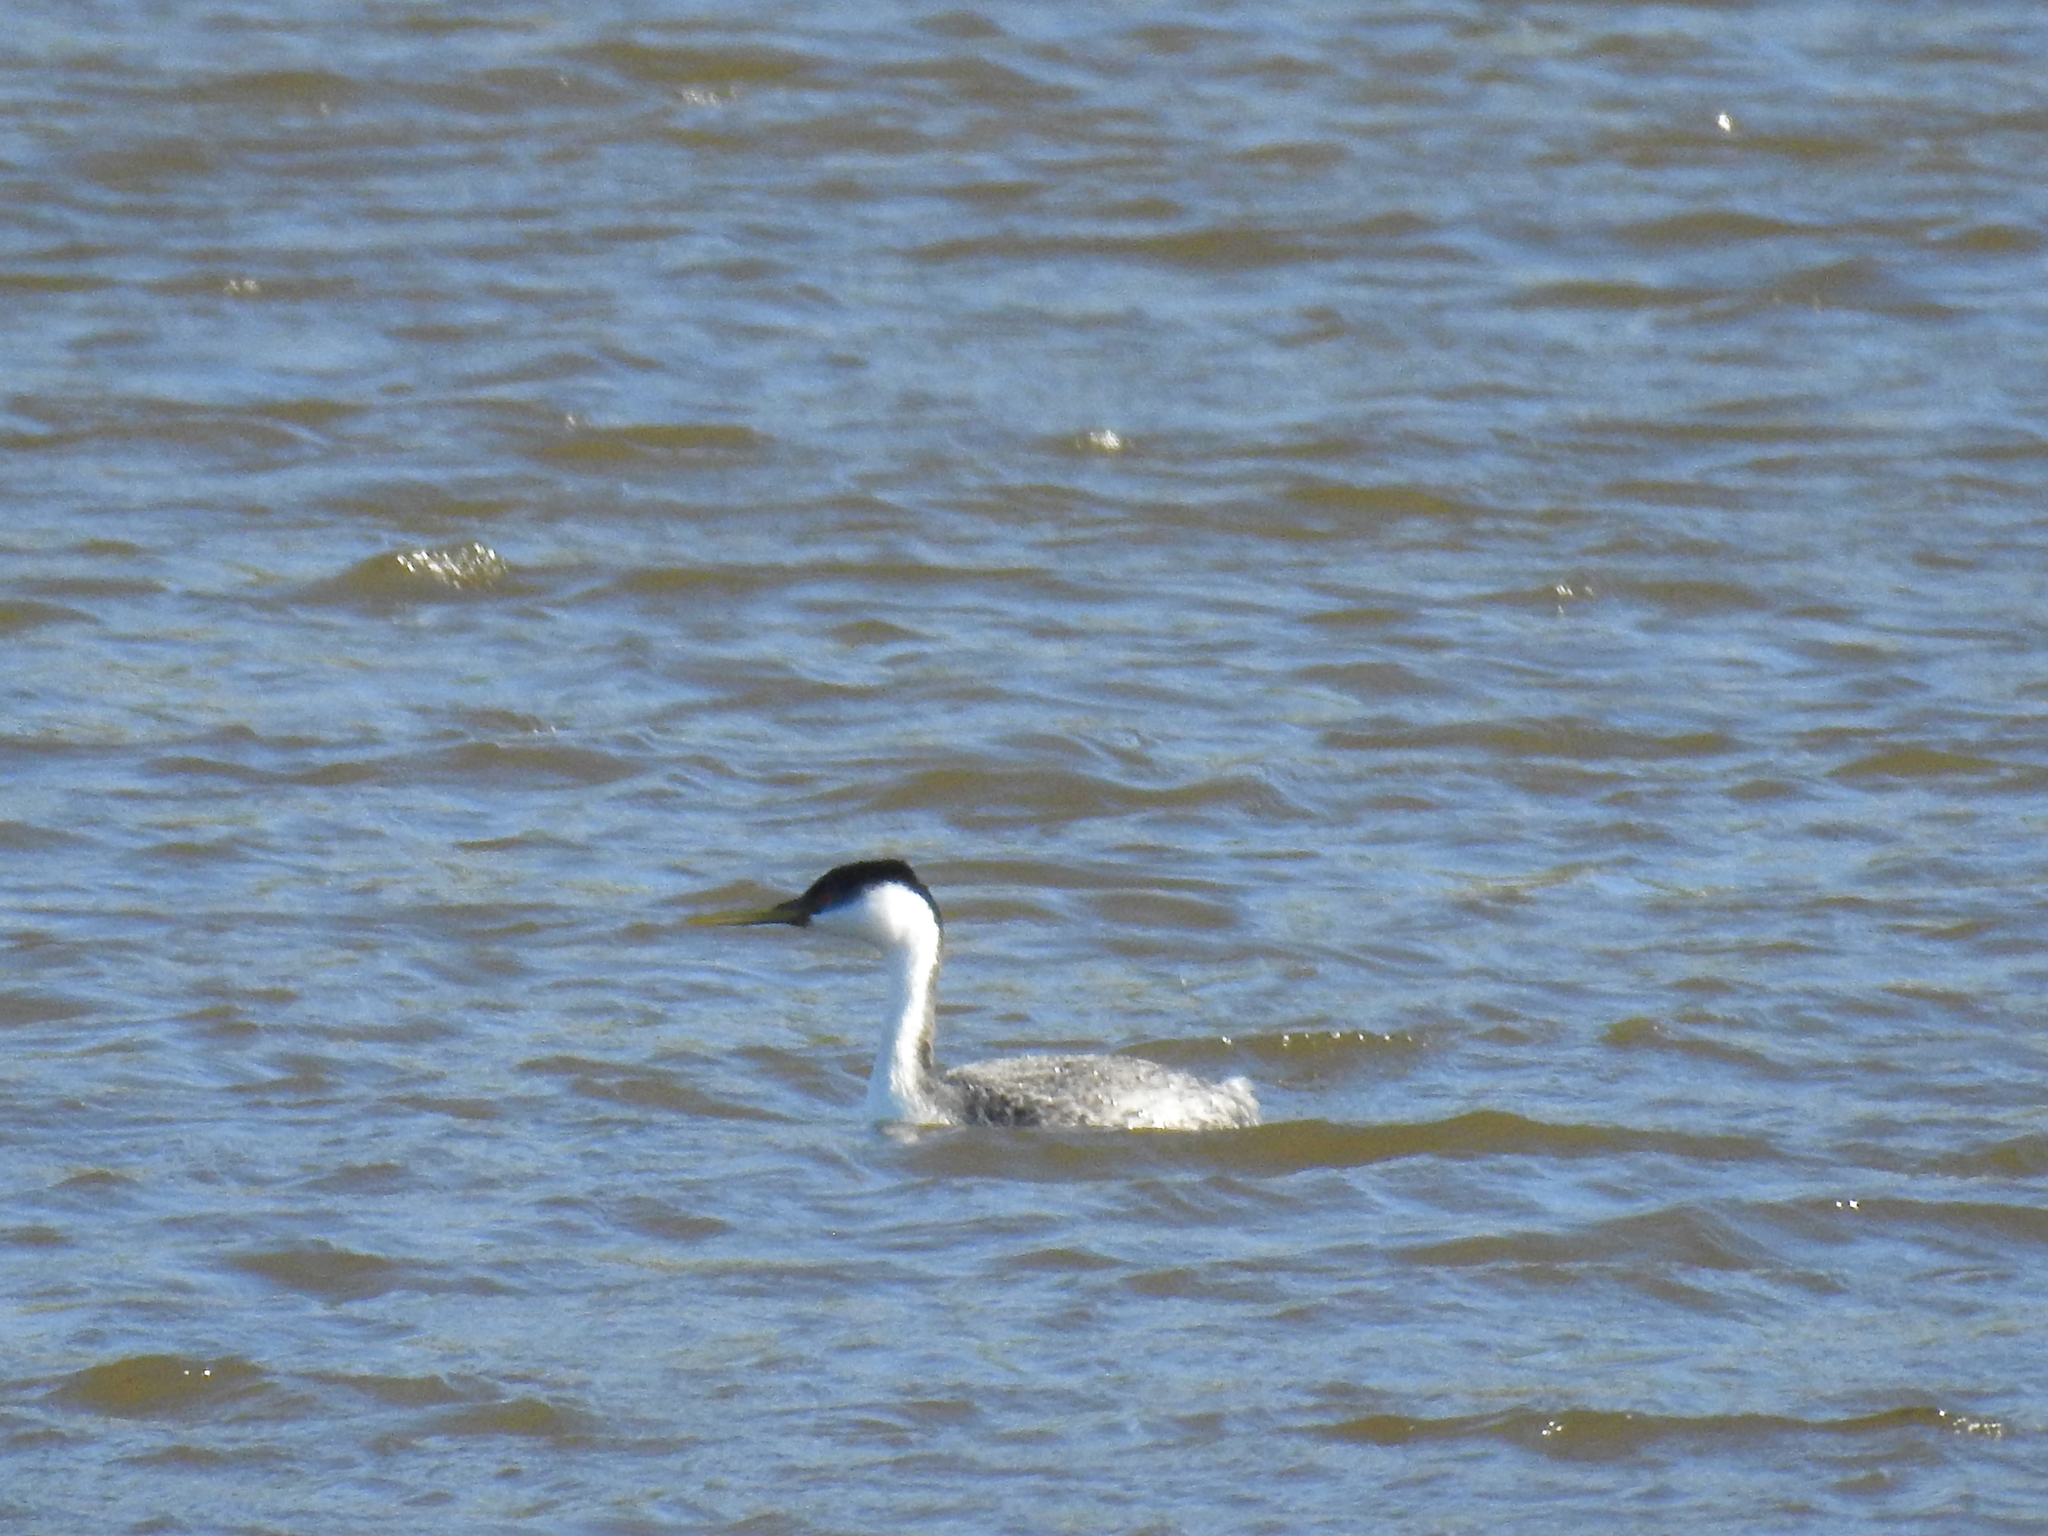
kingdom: Animalia
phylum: Chordata
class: Aves
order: Podicipediformes
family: Podicipedidae
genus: Aechmophorus
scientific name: Aechmophorus occidentalis
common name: Western grebe
